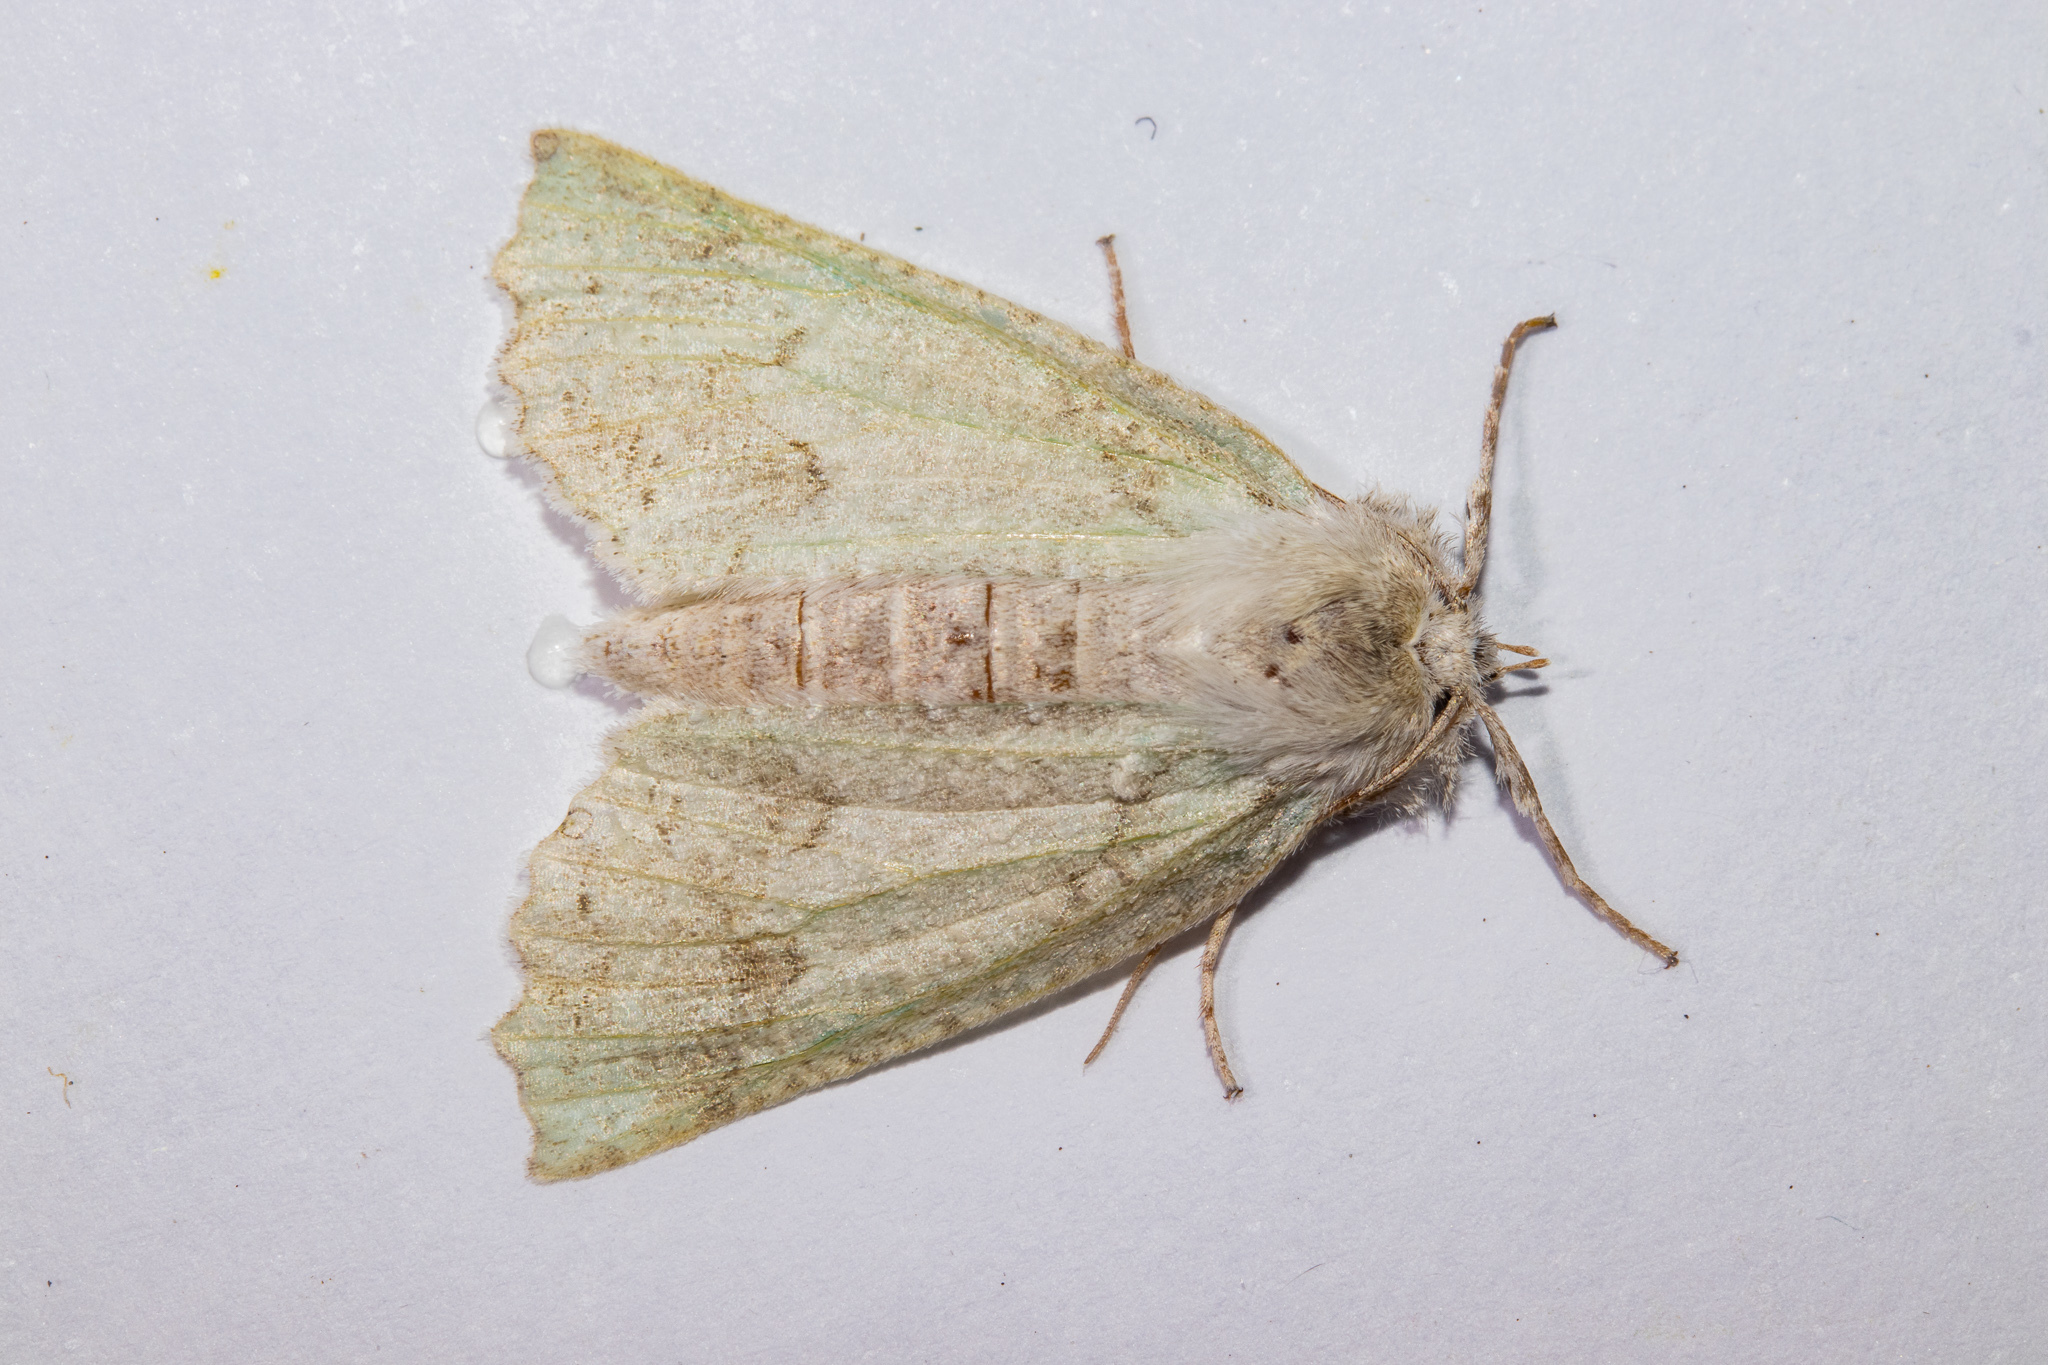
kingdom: Animalia
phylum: Arthropoda
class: Insecta
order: Lepidoptera
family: Geometridae
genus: Declana
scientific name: Declana floccosa
